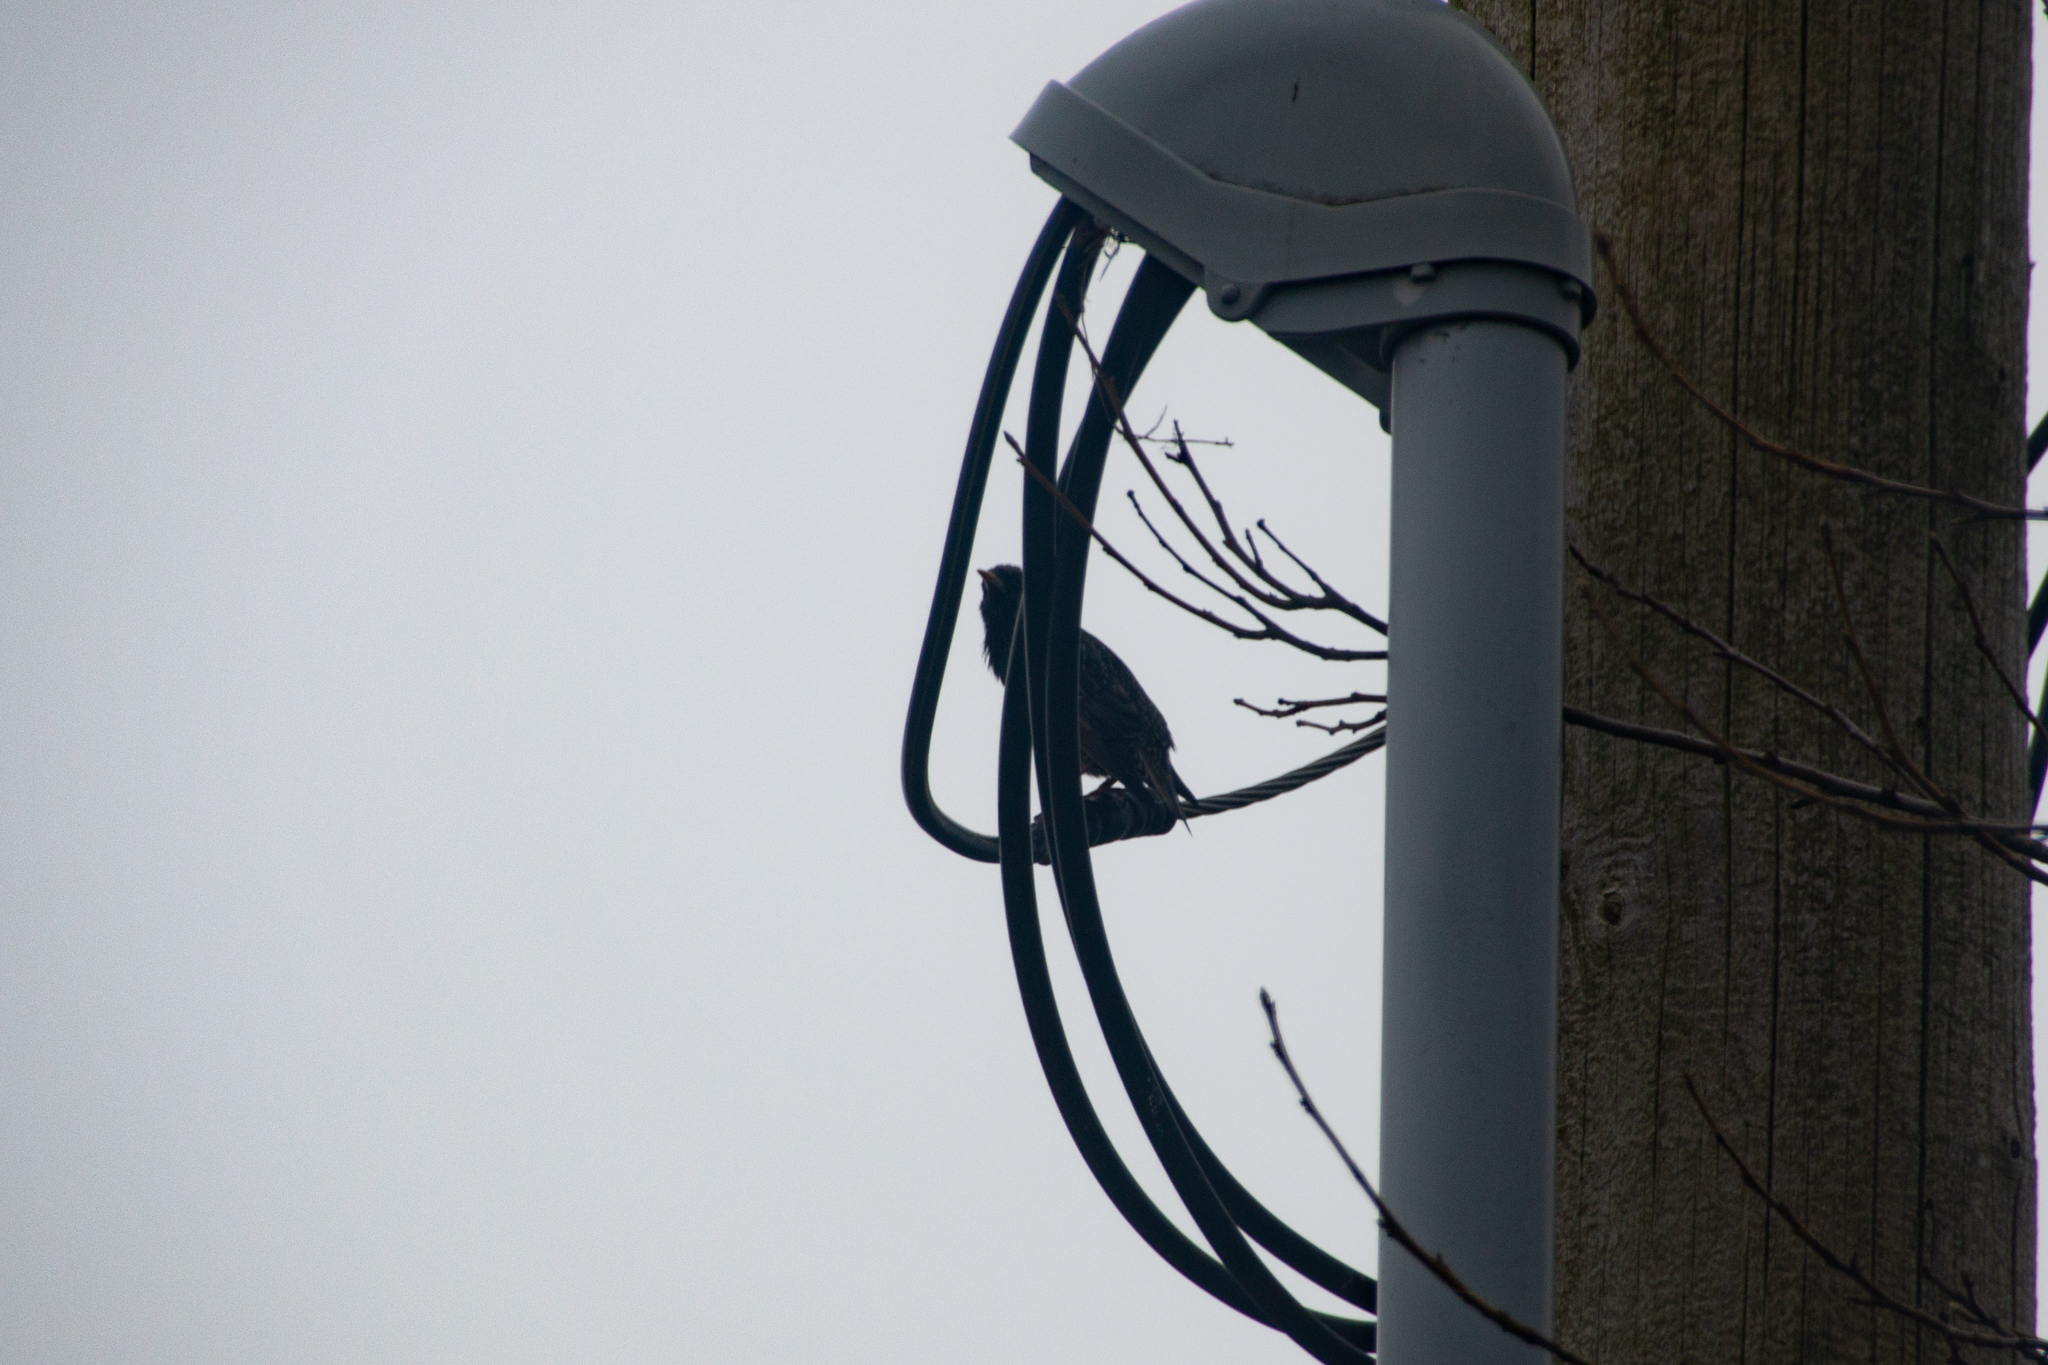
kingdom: Animalia
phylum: Chordata
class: Aves
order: Passeriformes
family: Sturnidae
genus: Sturnus
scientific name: Sturnus vulgaris
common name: Common starling
